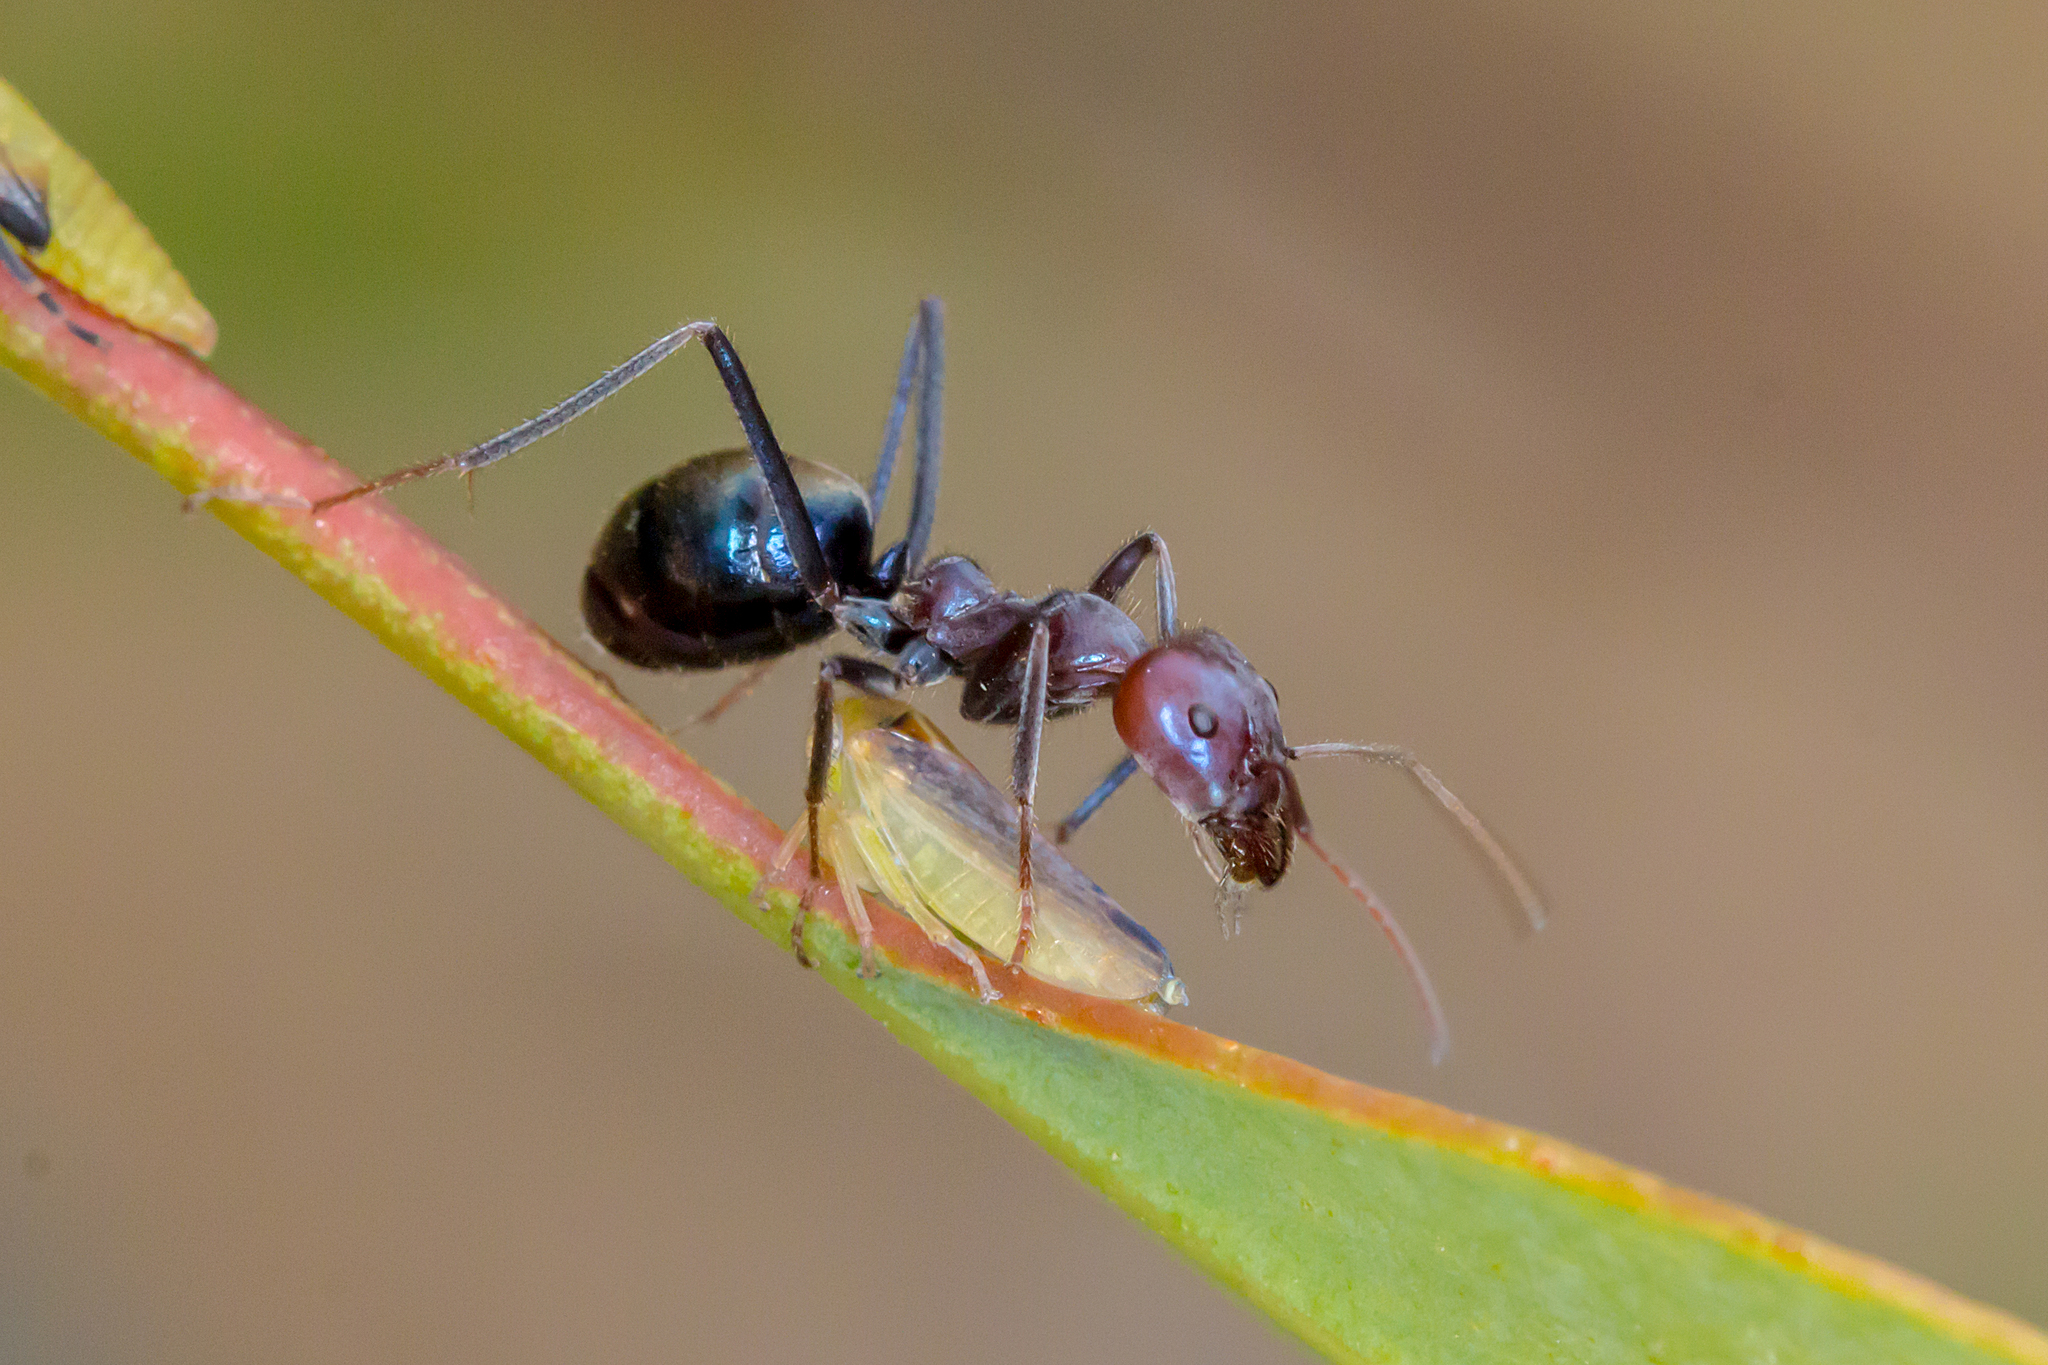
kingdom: Animalia
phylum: Arthropoda
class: Insecta
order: Hymenoptera
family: Formicidae
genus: Iridomyrmex
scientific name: Iridomyrmex purpureus
